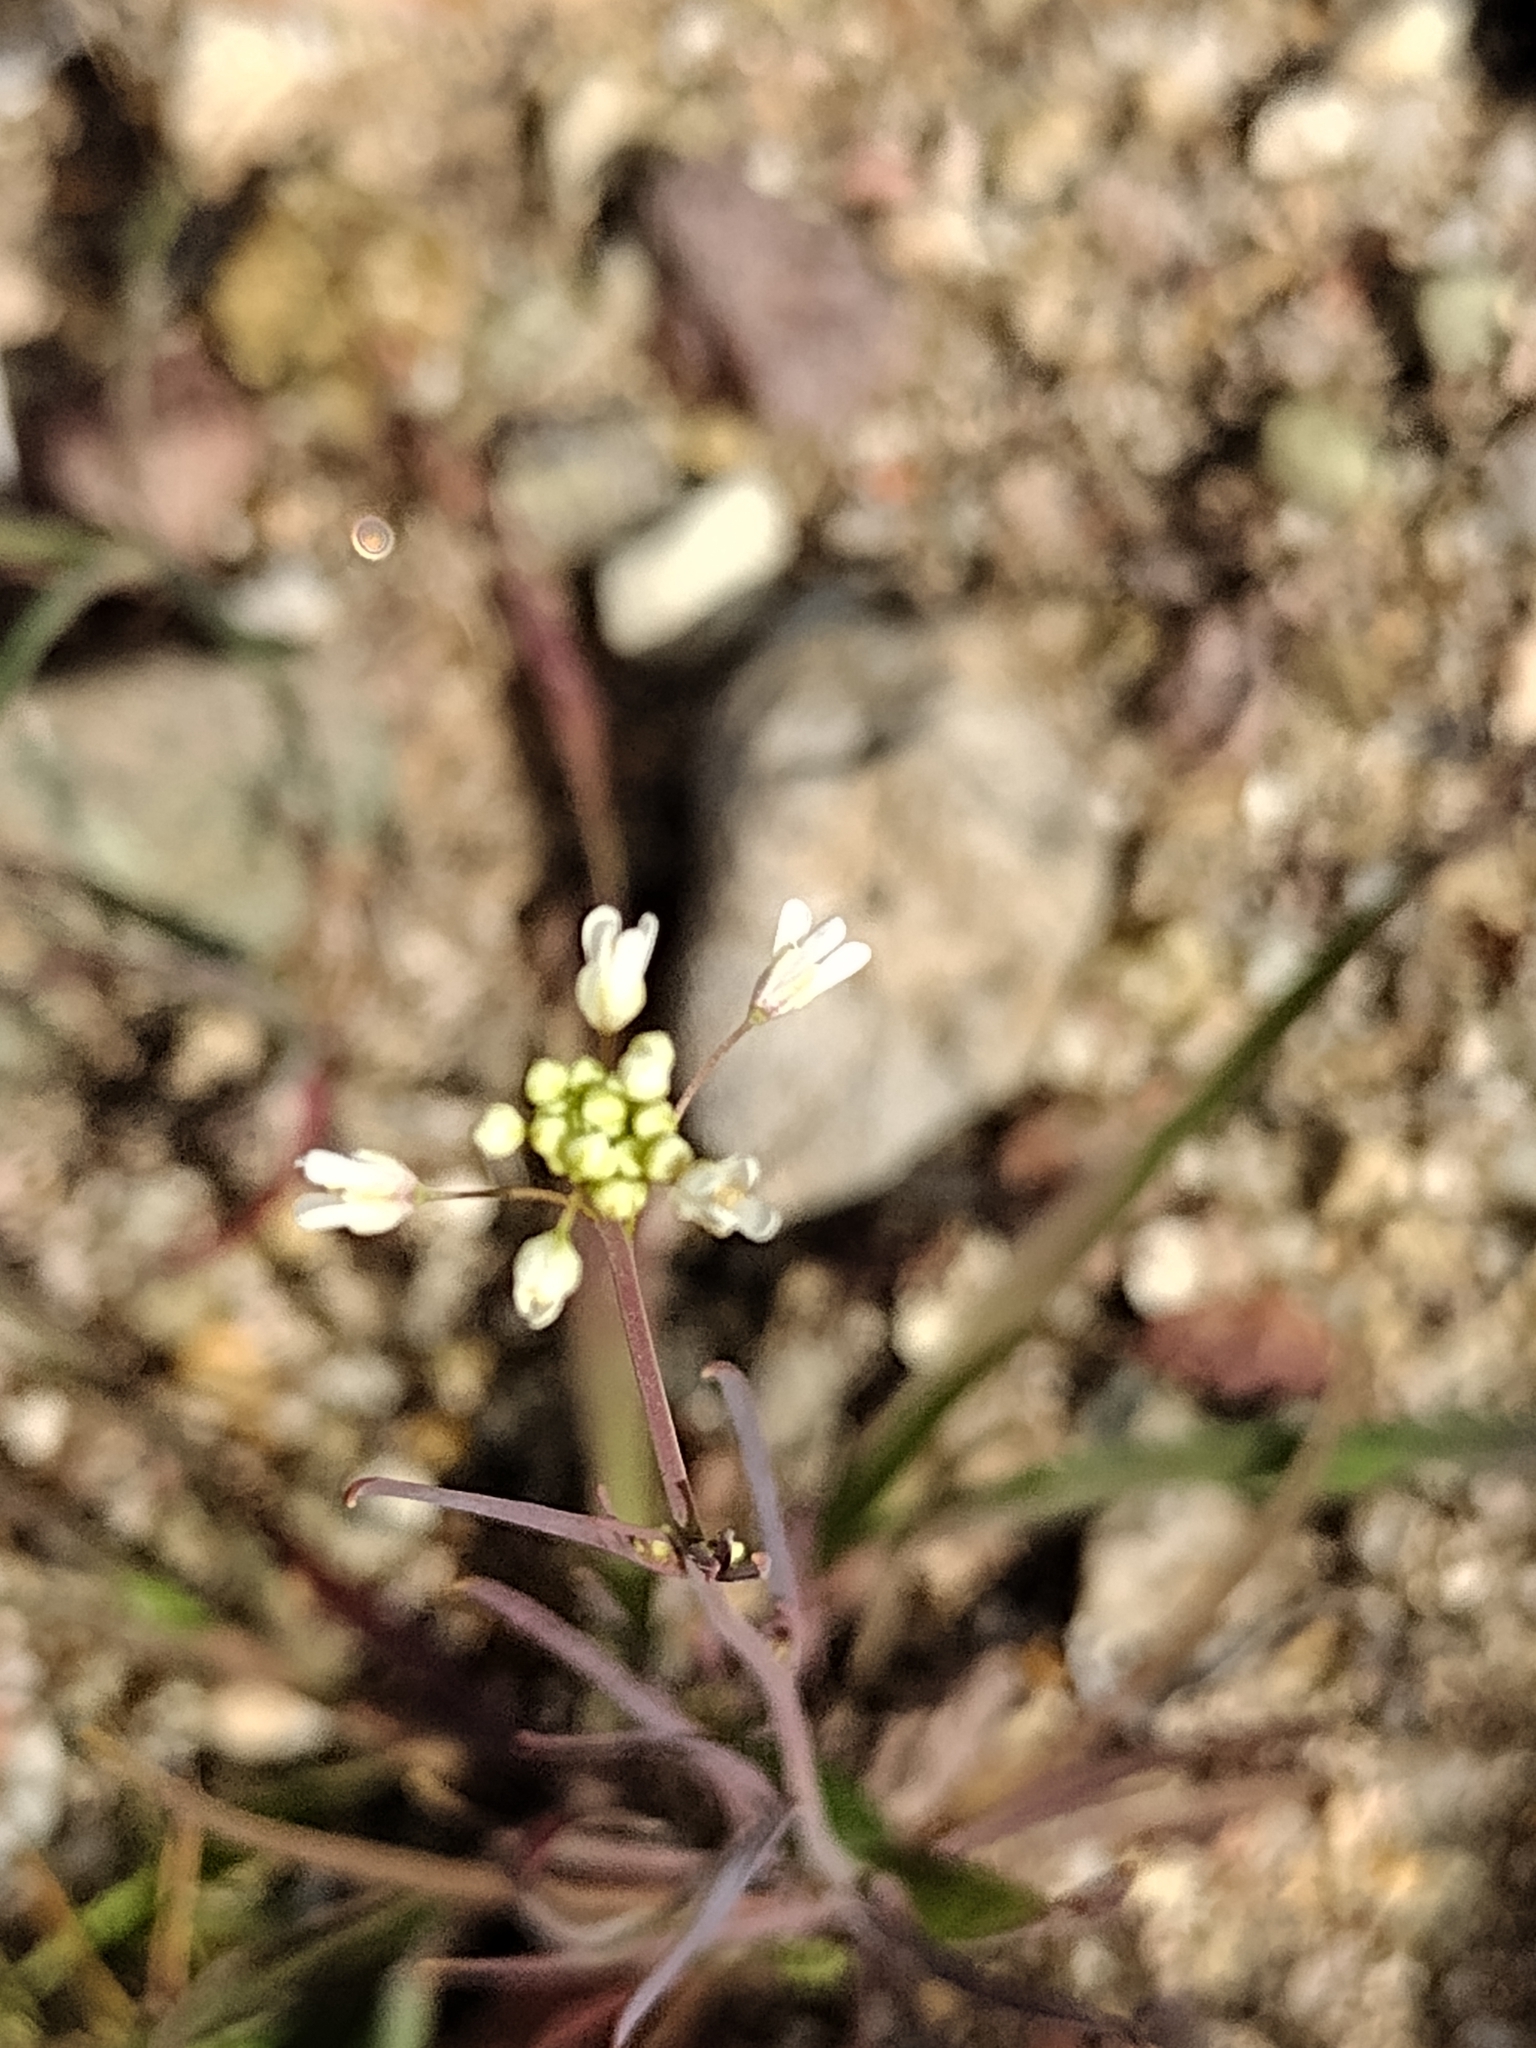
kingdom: Plantae
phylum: Tracheophyta
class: Magnoliopsida
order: Brassicales
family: Brassicaceae
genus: Thysanocarpus
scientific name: Thysanocarpus desertorum
